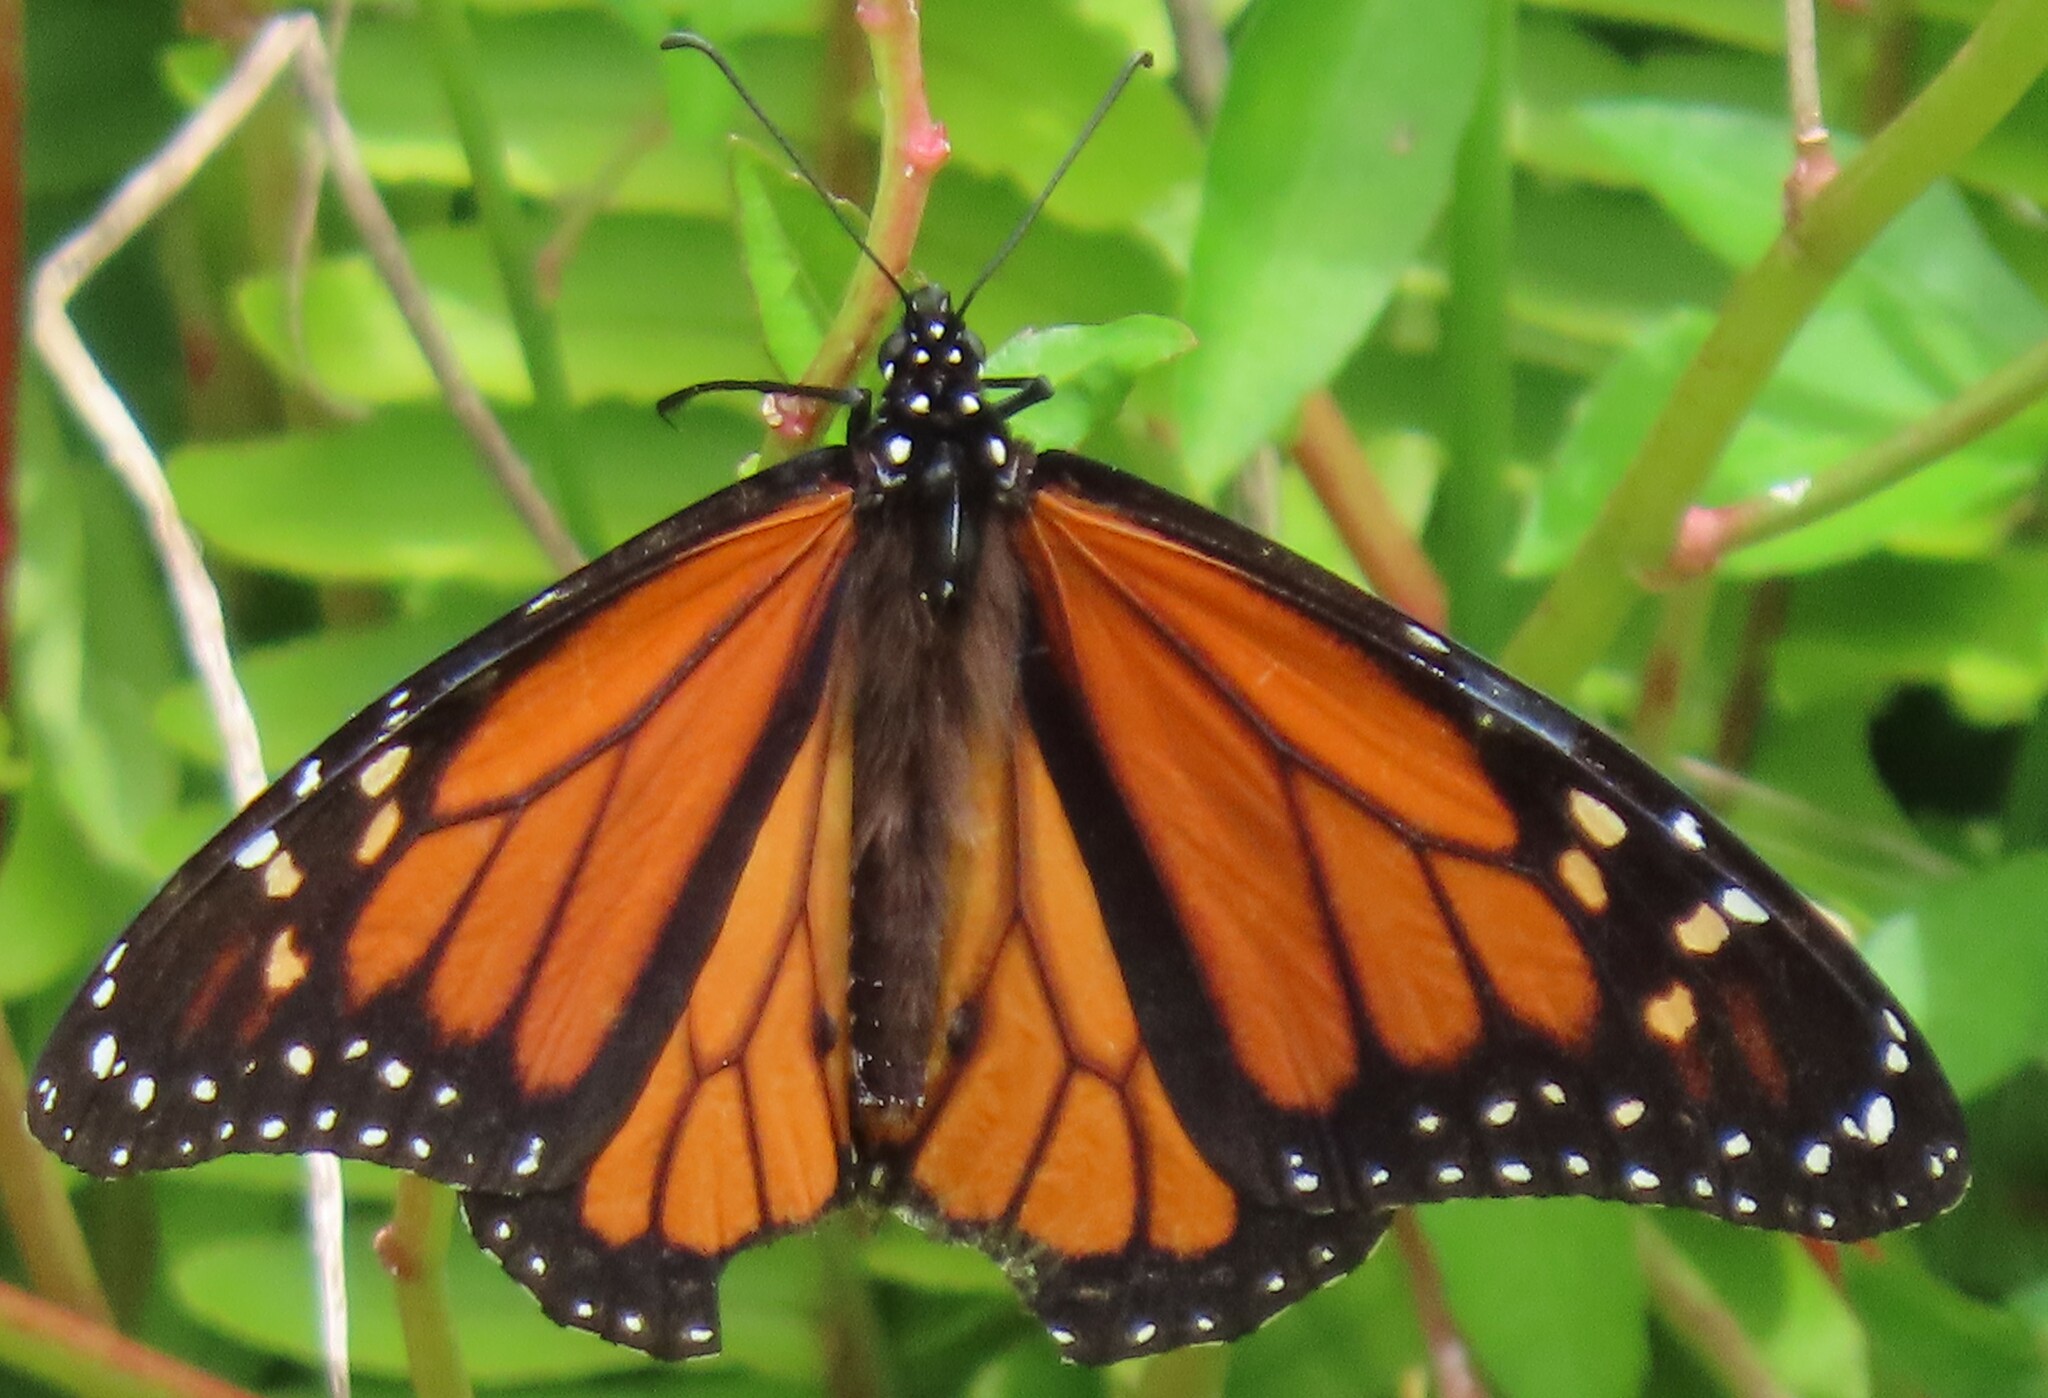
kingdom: Animalia
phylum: Arthropoda
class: Insecta
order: Lepidoptera
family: Nymphalidae
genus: Danaus
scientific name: Danaus plexippus
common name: Monarch
